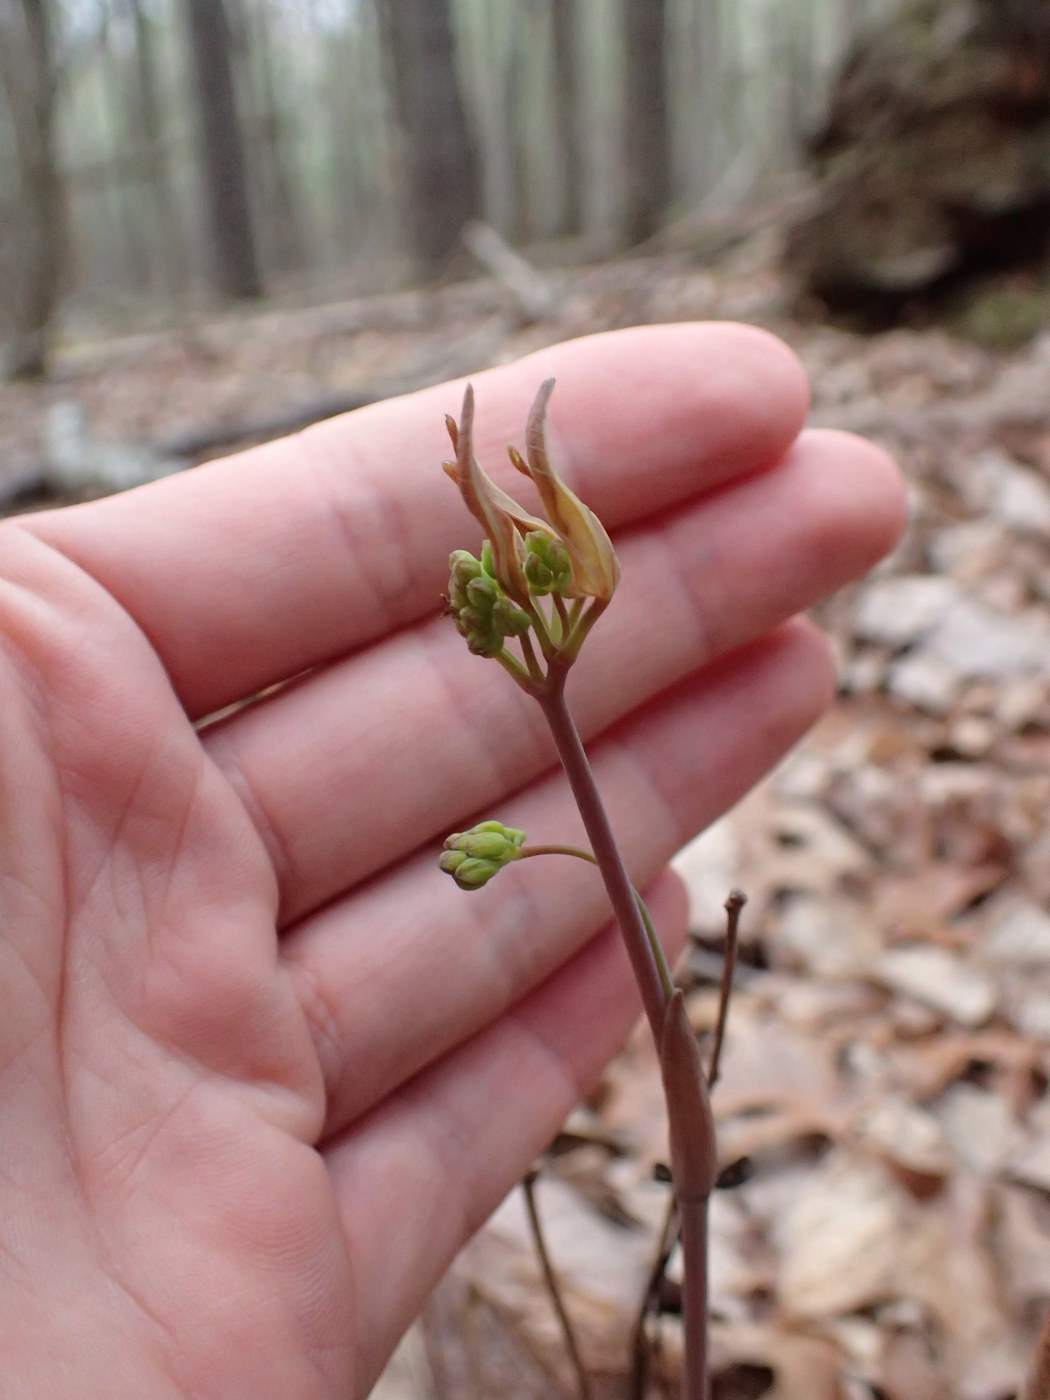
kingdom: Plantae
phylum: Tracheophyta
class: Liliopsida
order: Liliales
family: Smilacaceae
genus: Smilax
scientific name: Smilax biltmoreana
